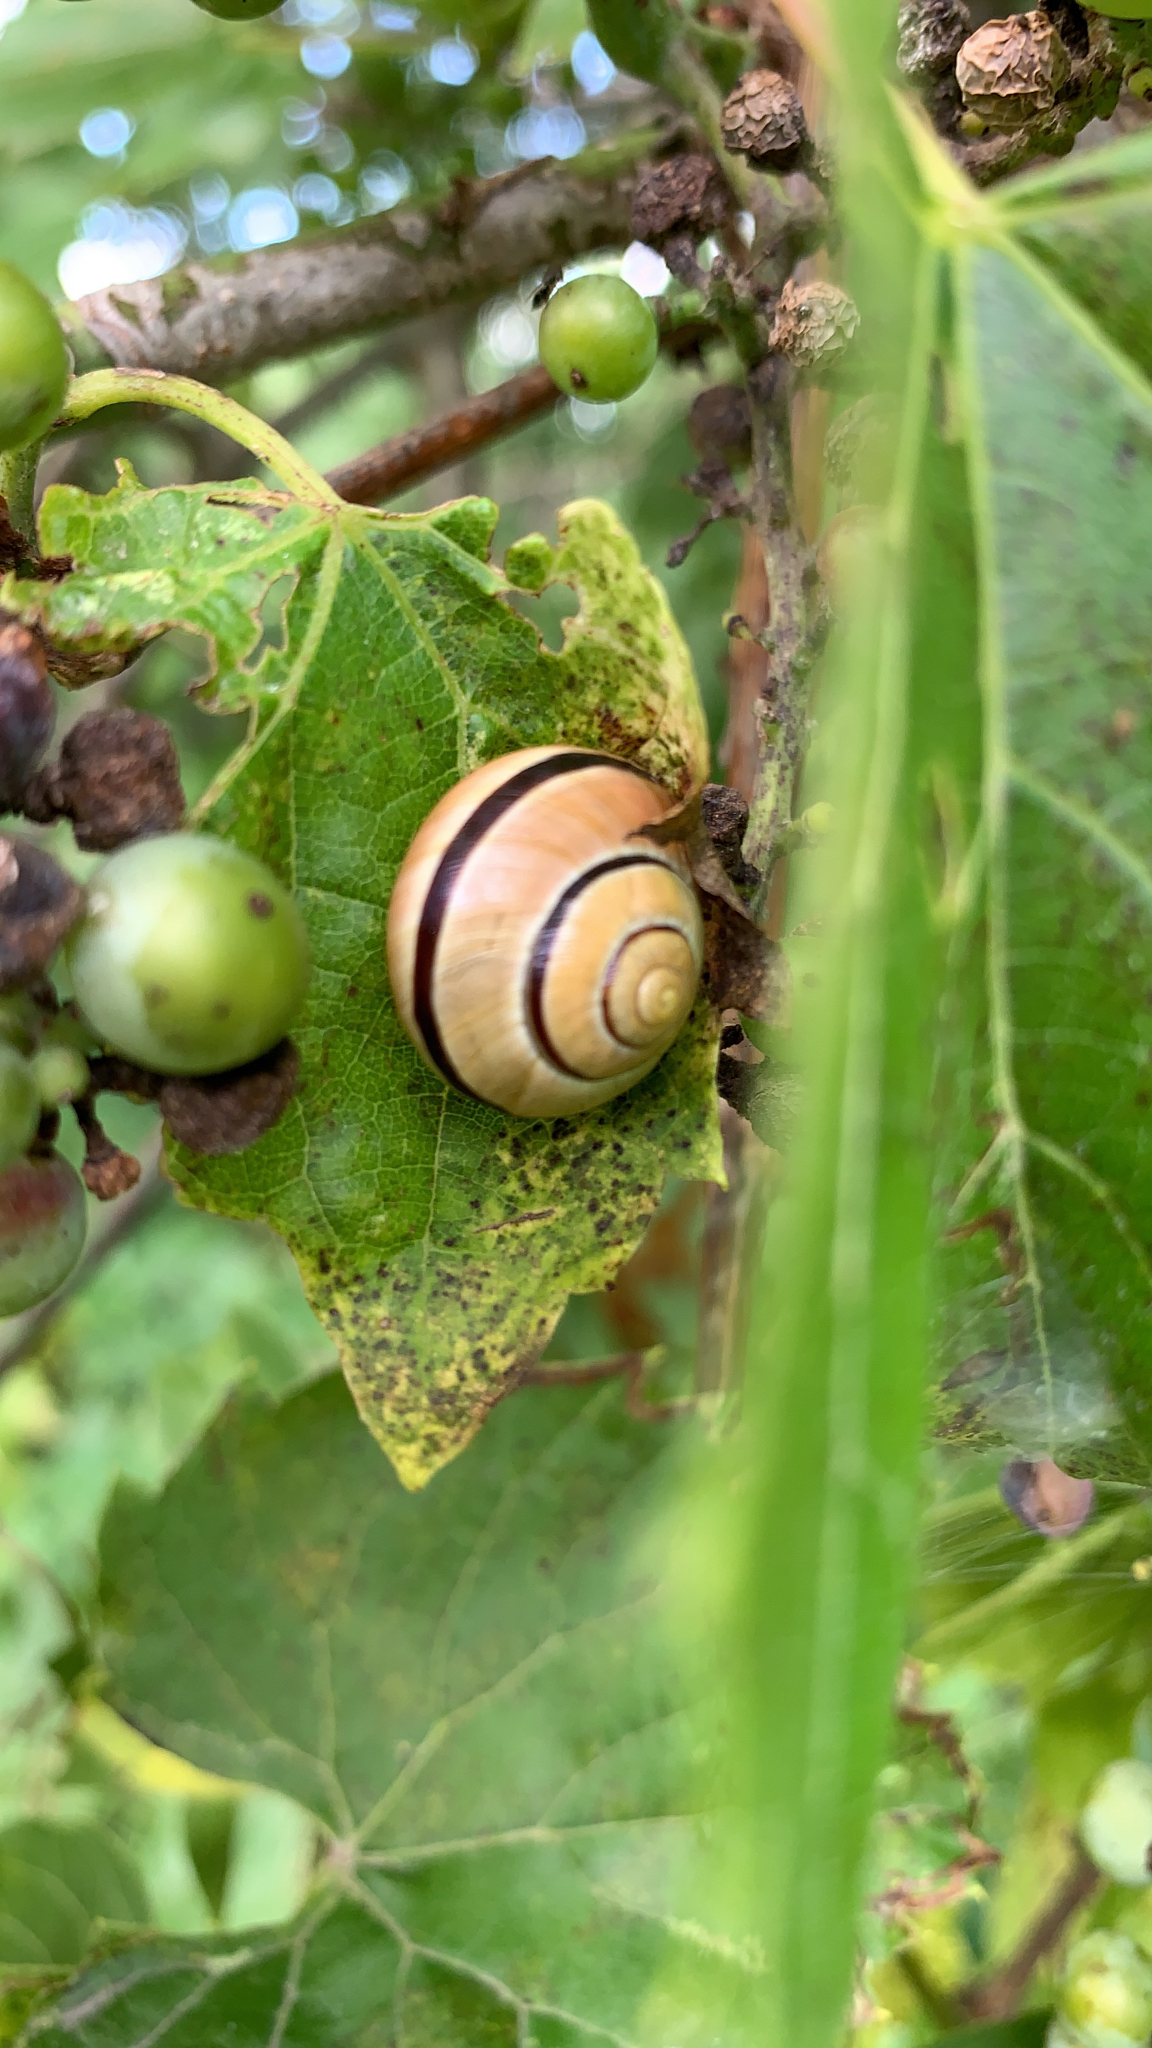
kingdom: Animalia
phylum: Mollusca
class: Gastropoda
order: Stylommatophora
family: Helicidae
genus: Cepaea
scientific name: Cepaea nemoralis
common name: Grovesnail
